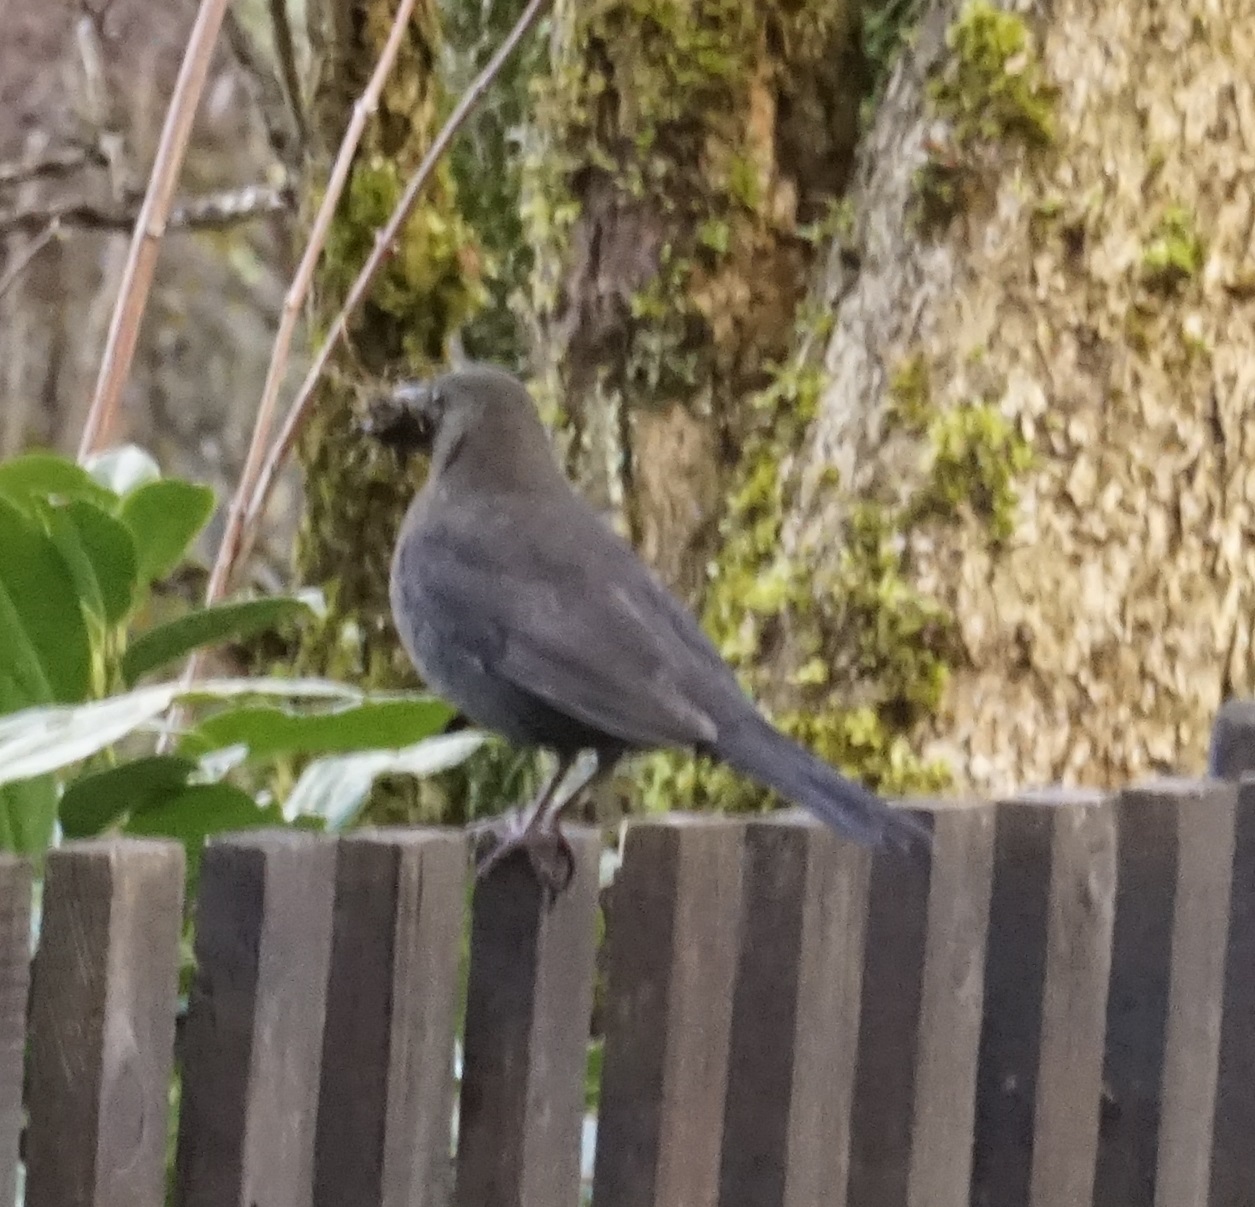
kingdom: Animalia
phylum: Chordata
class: Aves
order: Passeriformes
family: Turdidae
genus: Turdus
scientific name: Turdus merula
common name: Common blackbird
